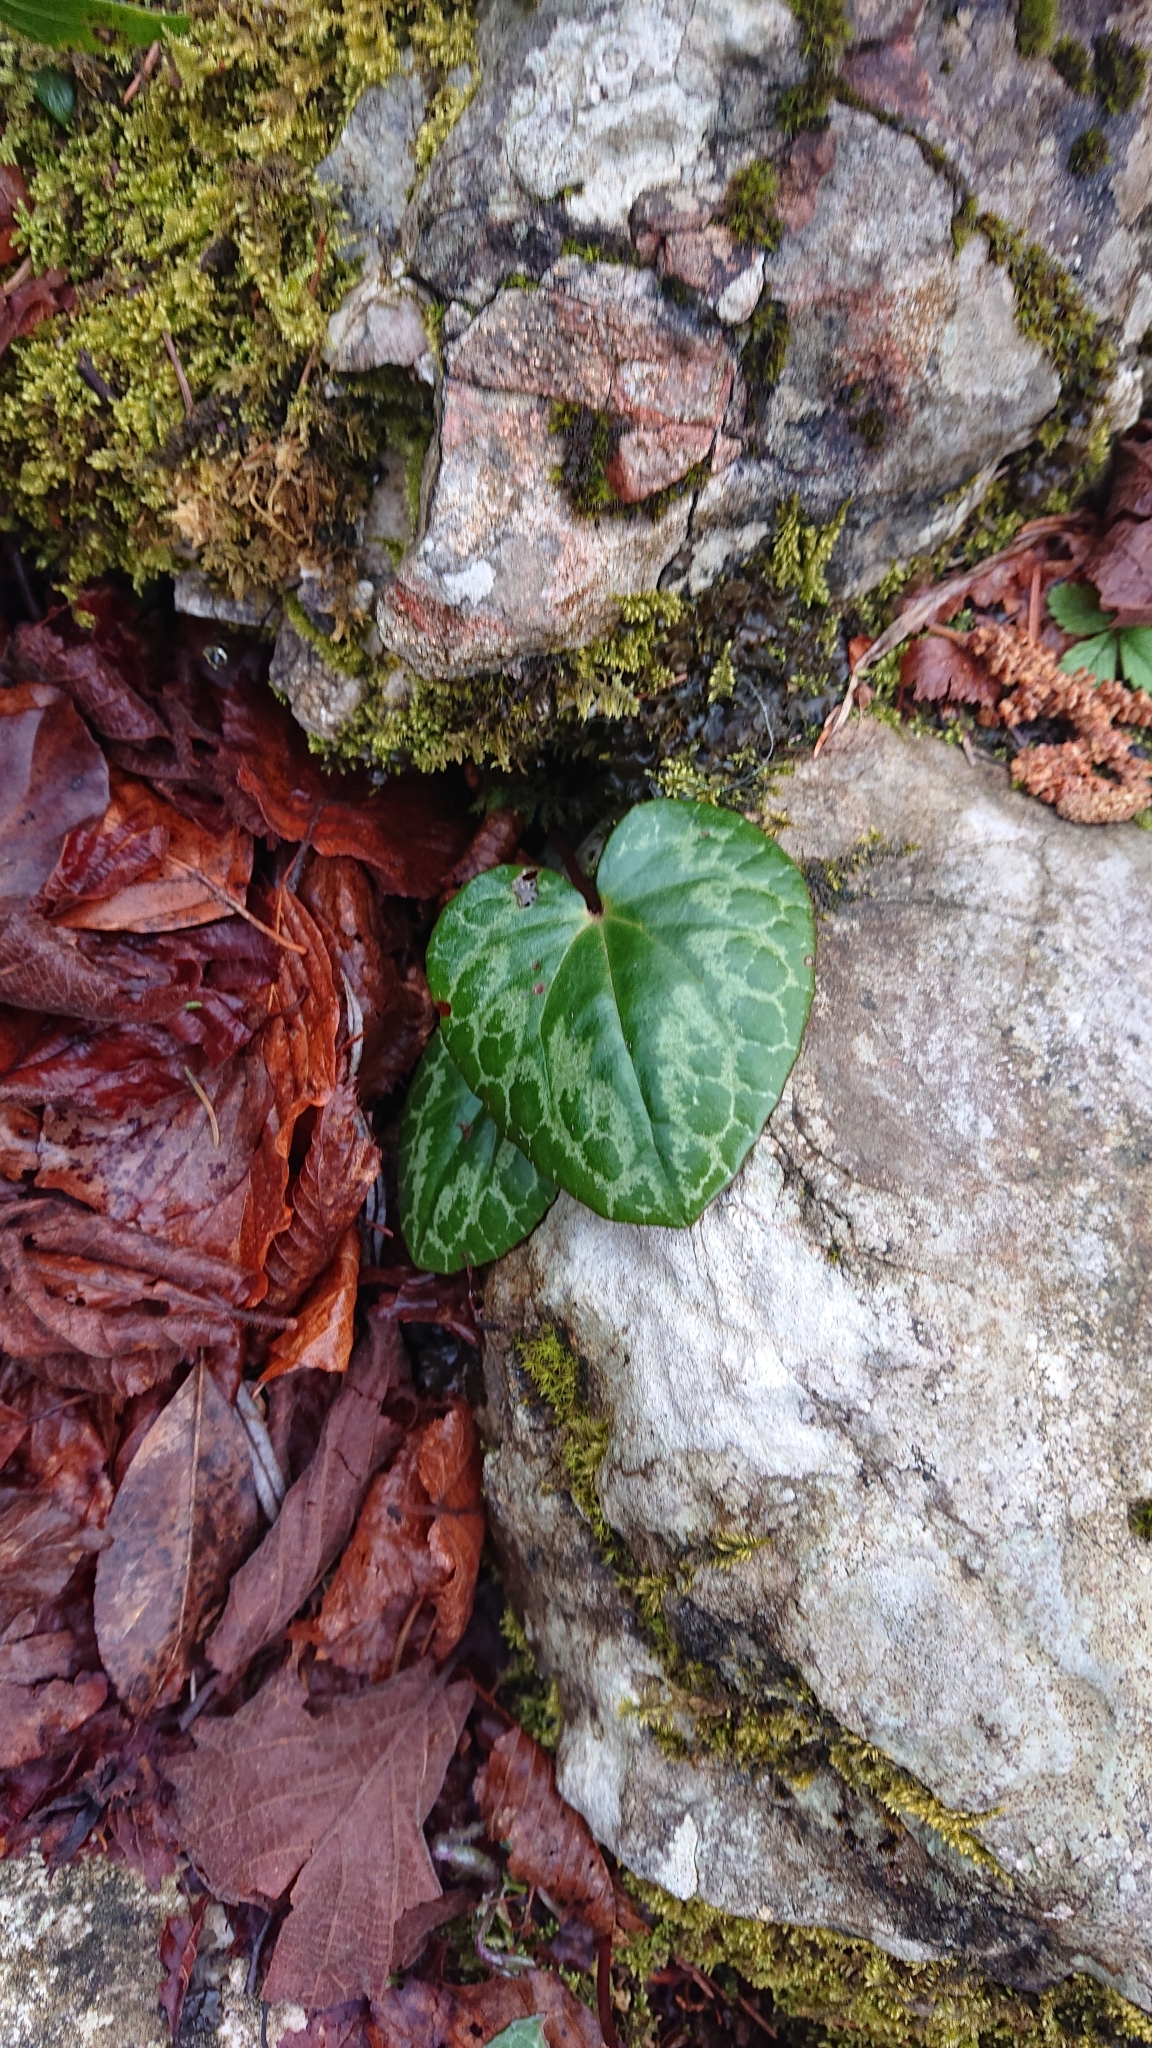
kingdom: Plantae
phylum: Tracheophyta
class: Magnoliopsida
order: Ericales
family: Primulaceae
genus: Cyclamen
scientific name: Cyclamen purpurascens
